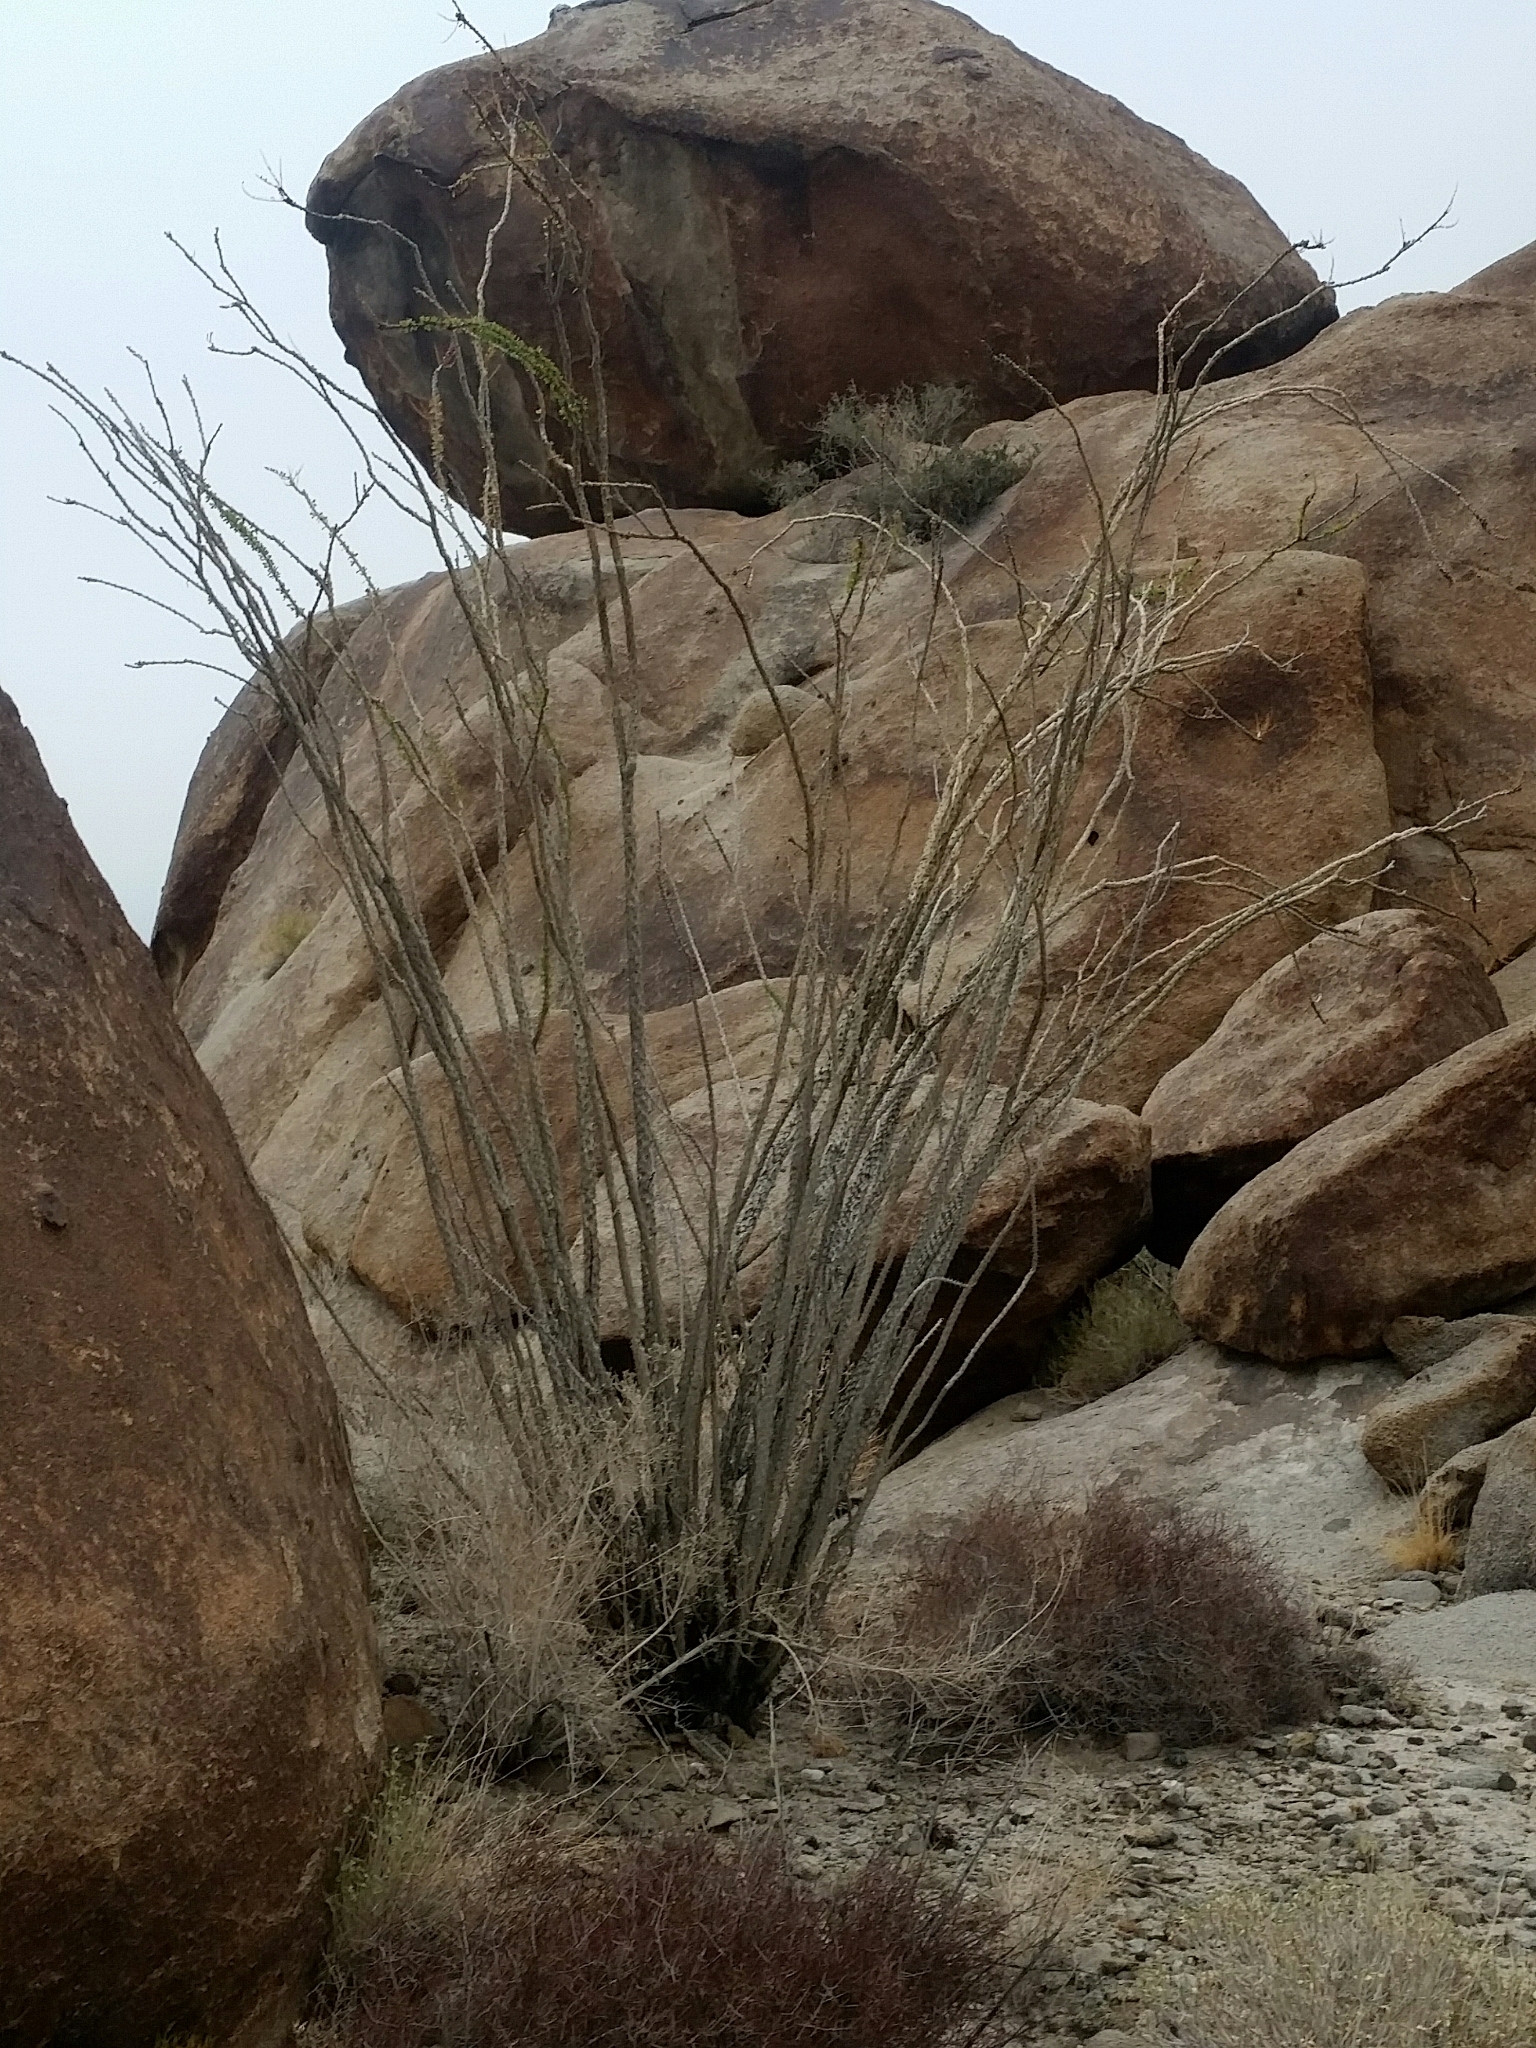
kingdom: Plantae
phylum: Tracheophyta
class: Magnoliopsida
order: Ericales
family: Fouquieriaceae
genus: Fouquieria
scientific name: Fouquieria splendens
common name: Vine-cactus
